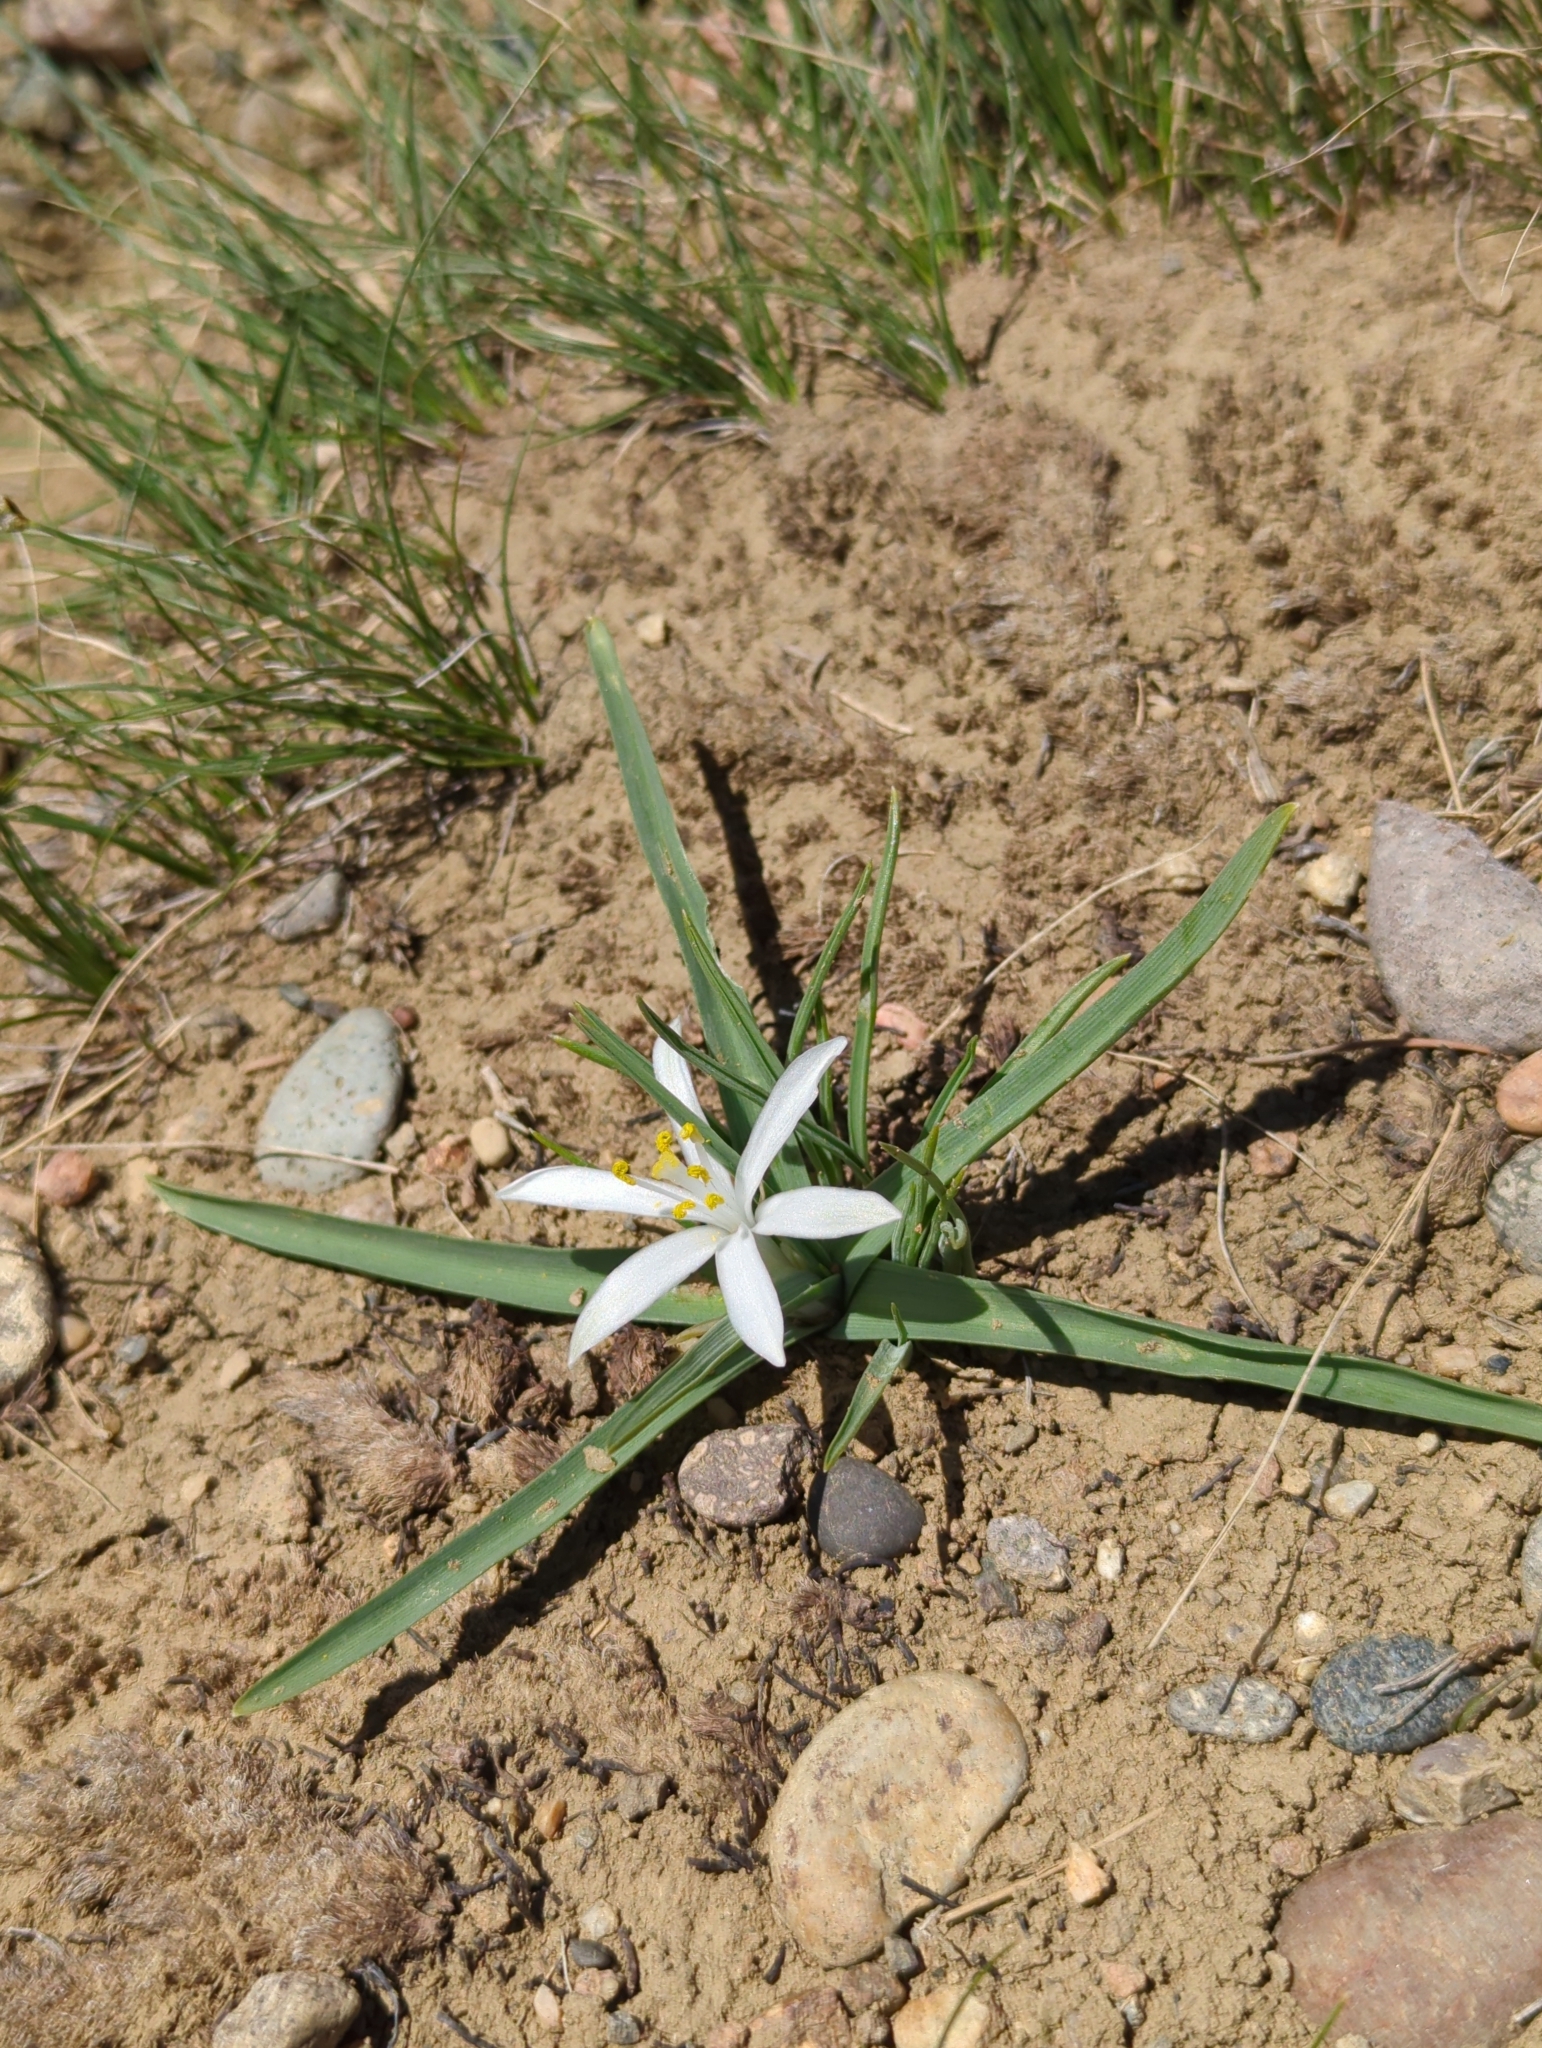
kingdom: Plantae
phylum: Tracheophyta
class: Liliopsida
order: Asparagales
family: Asparagaceae
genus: Leucocrinum
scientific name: Leucocrinum montanum
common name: Mountain-lily
